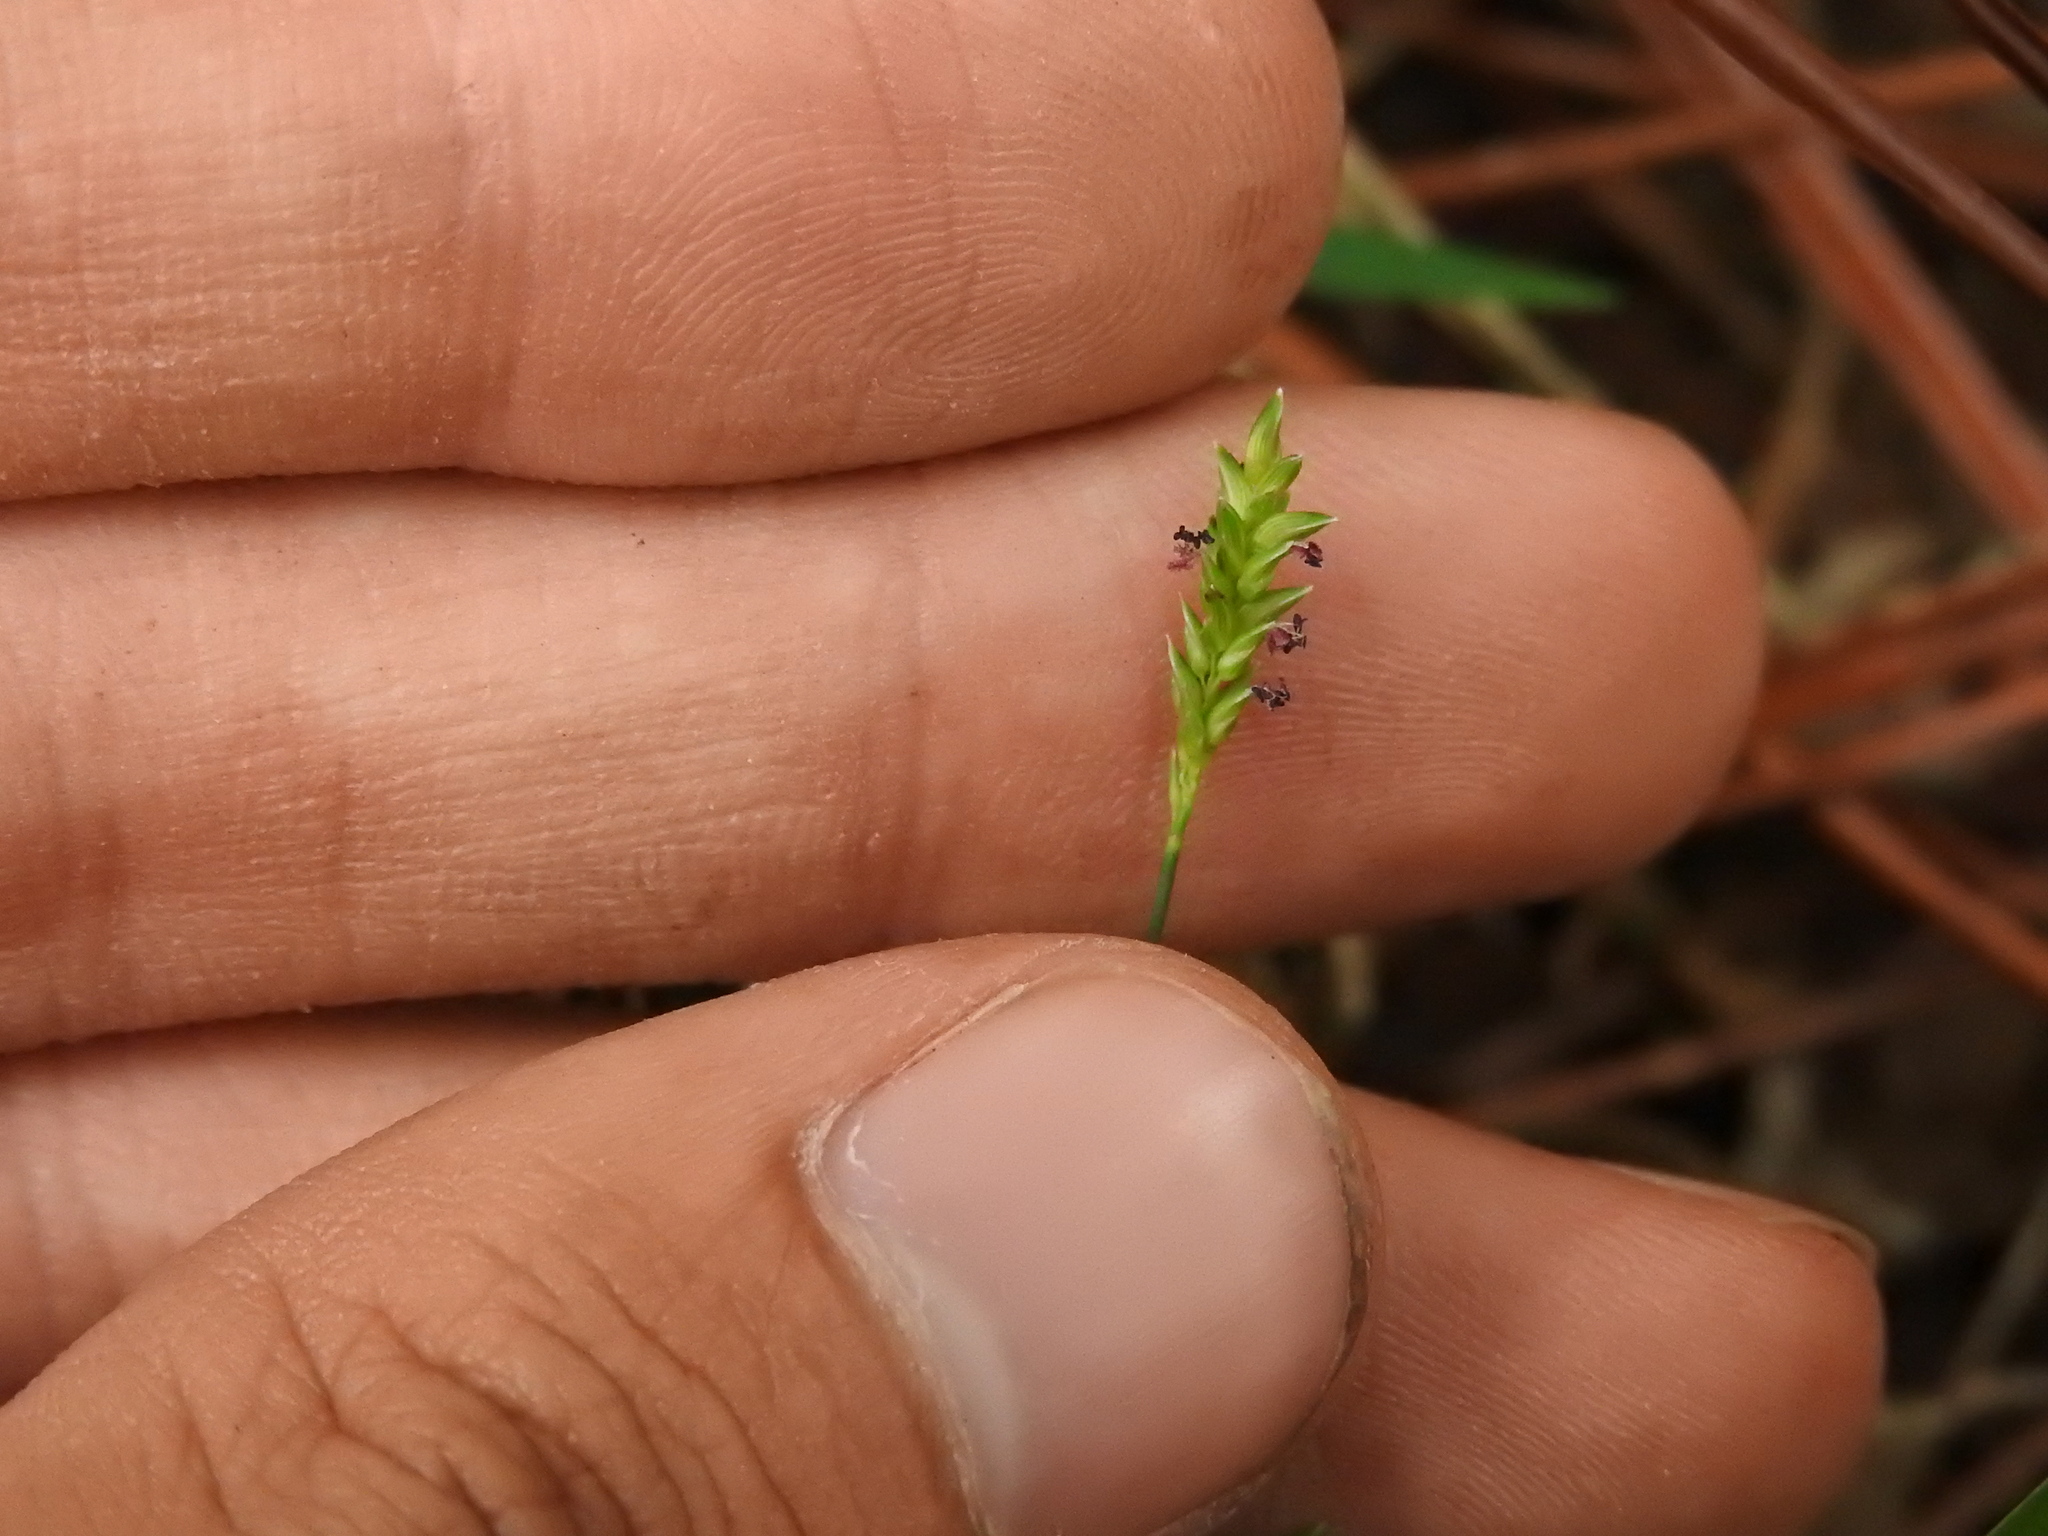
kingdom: Plantae
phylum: Tracheophyta
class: Liliopsida
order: Poales
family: Poaceae
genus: Sacciolepis
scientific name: Sacciolepis indica
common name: Glenwoodgrass
